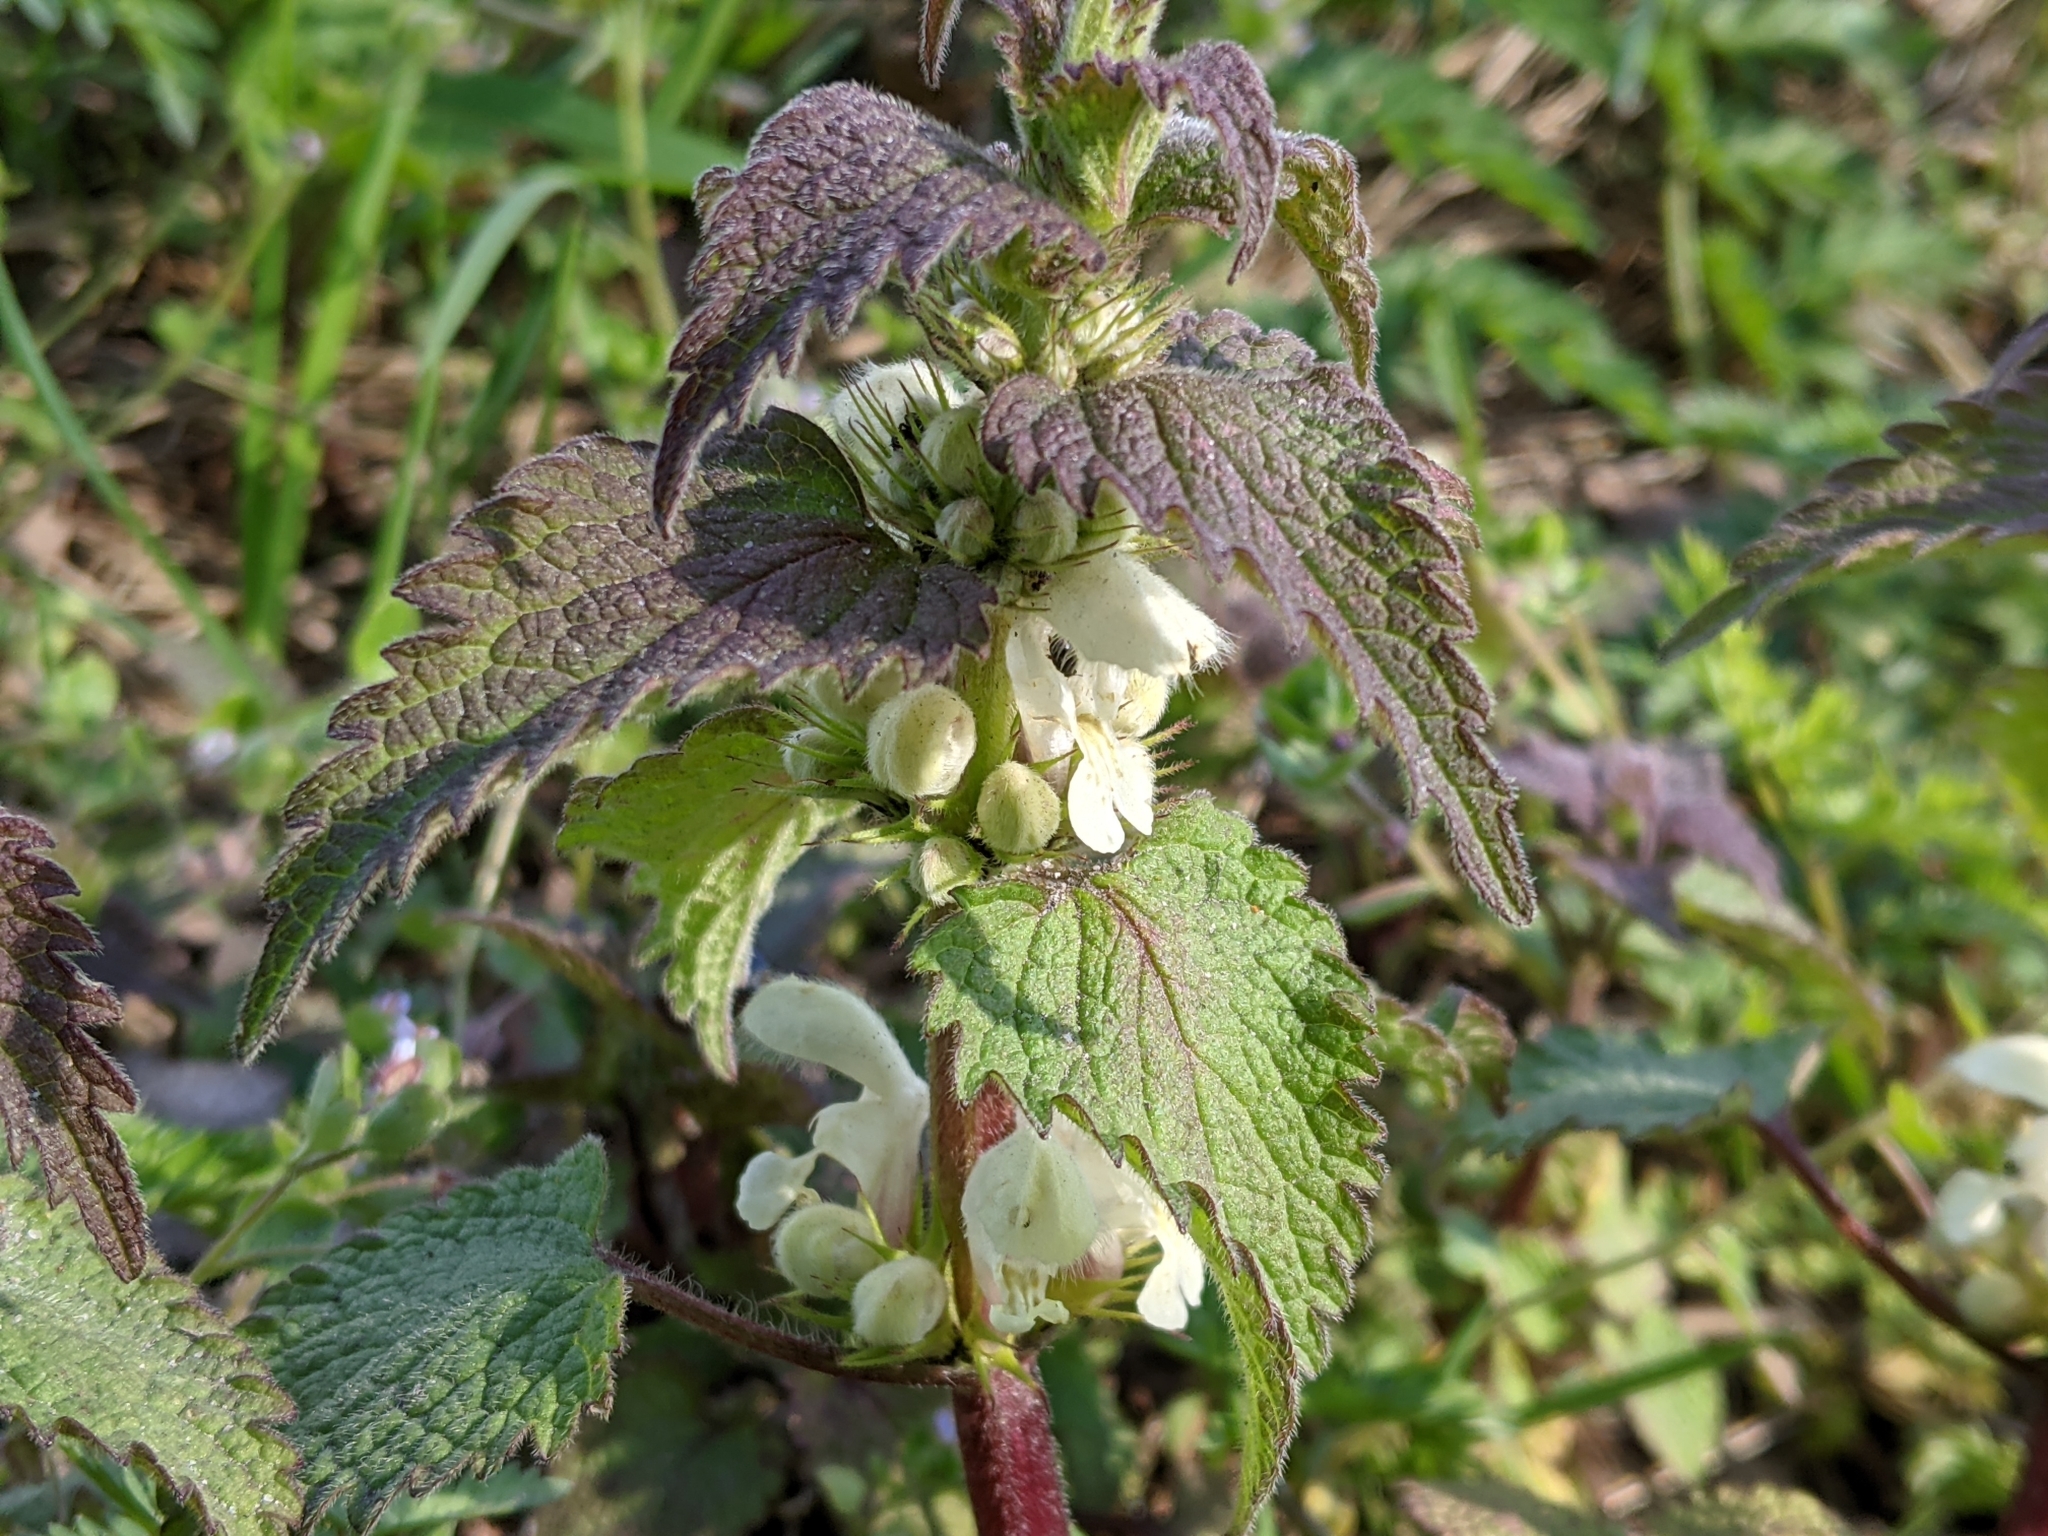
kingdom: Plantae
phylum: Tracheophyta
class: Magnoliopsida
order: Lamiales
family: Lamiaceae
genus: Lamium
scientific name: Lamium album
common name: White dead-nettle
